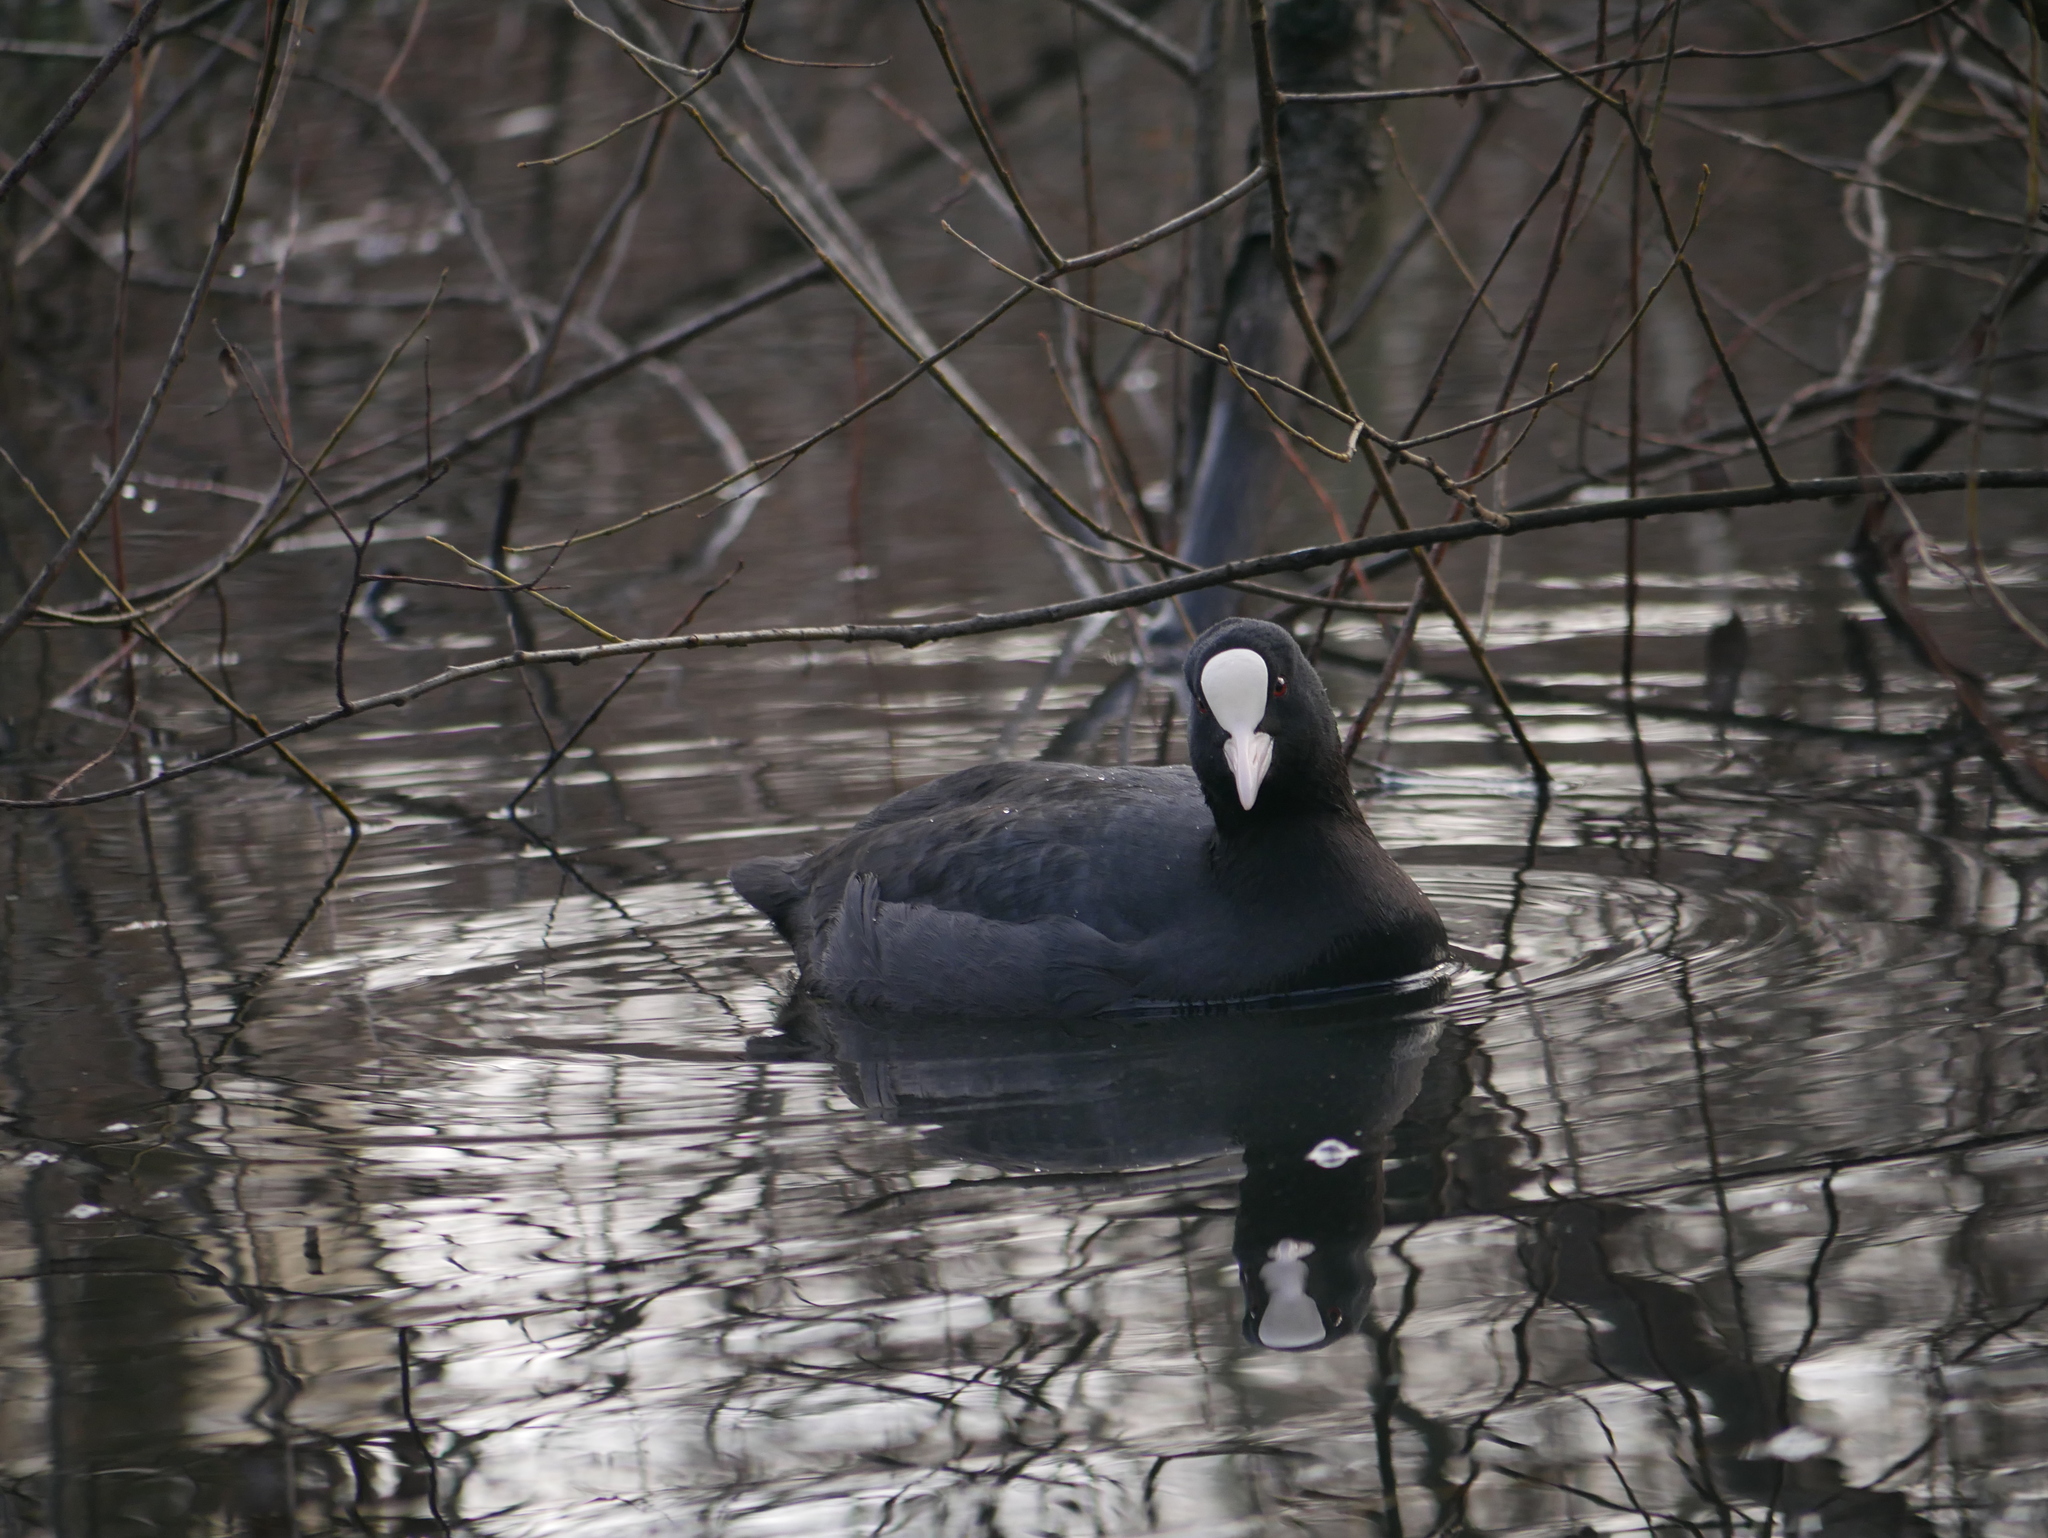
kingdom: Animalia
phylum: Chordata
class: Aves
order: Gruiformes
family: Rallidae
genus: Fulica
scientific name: Fulica atra
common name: Eurasian coot
